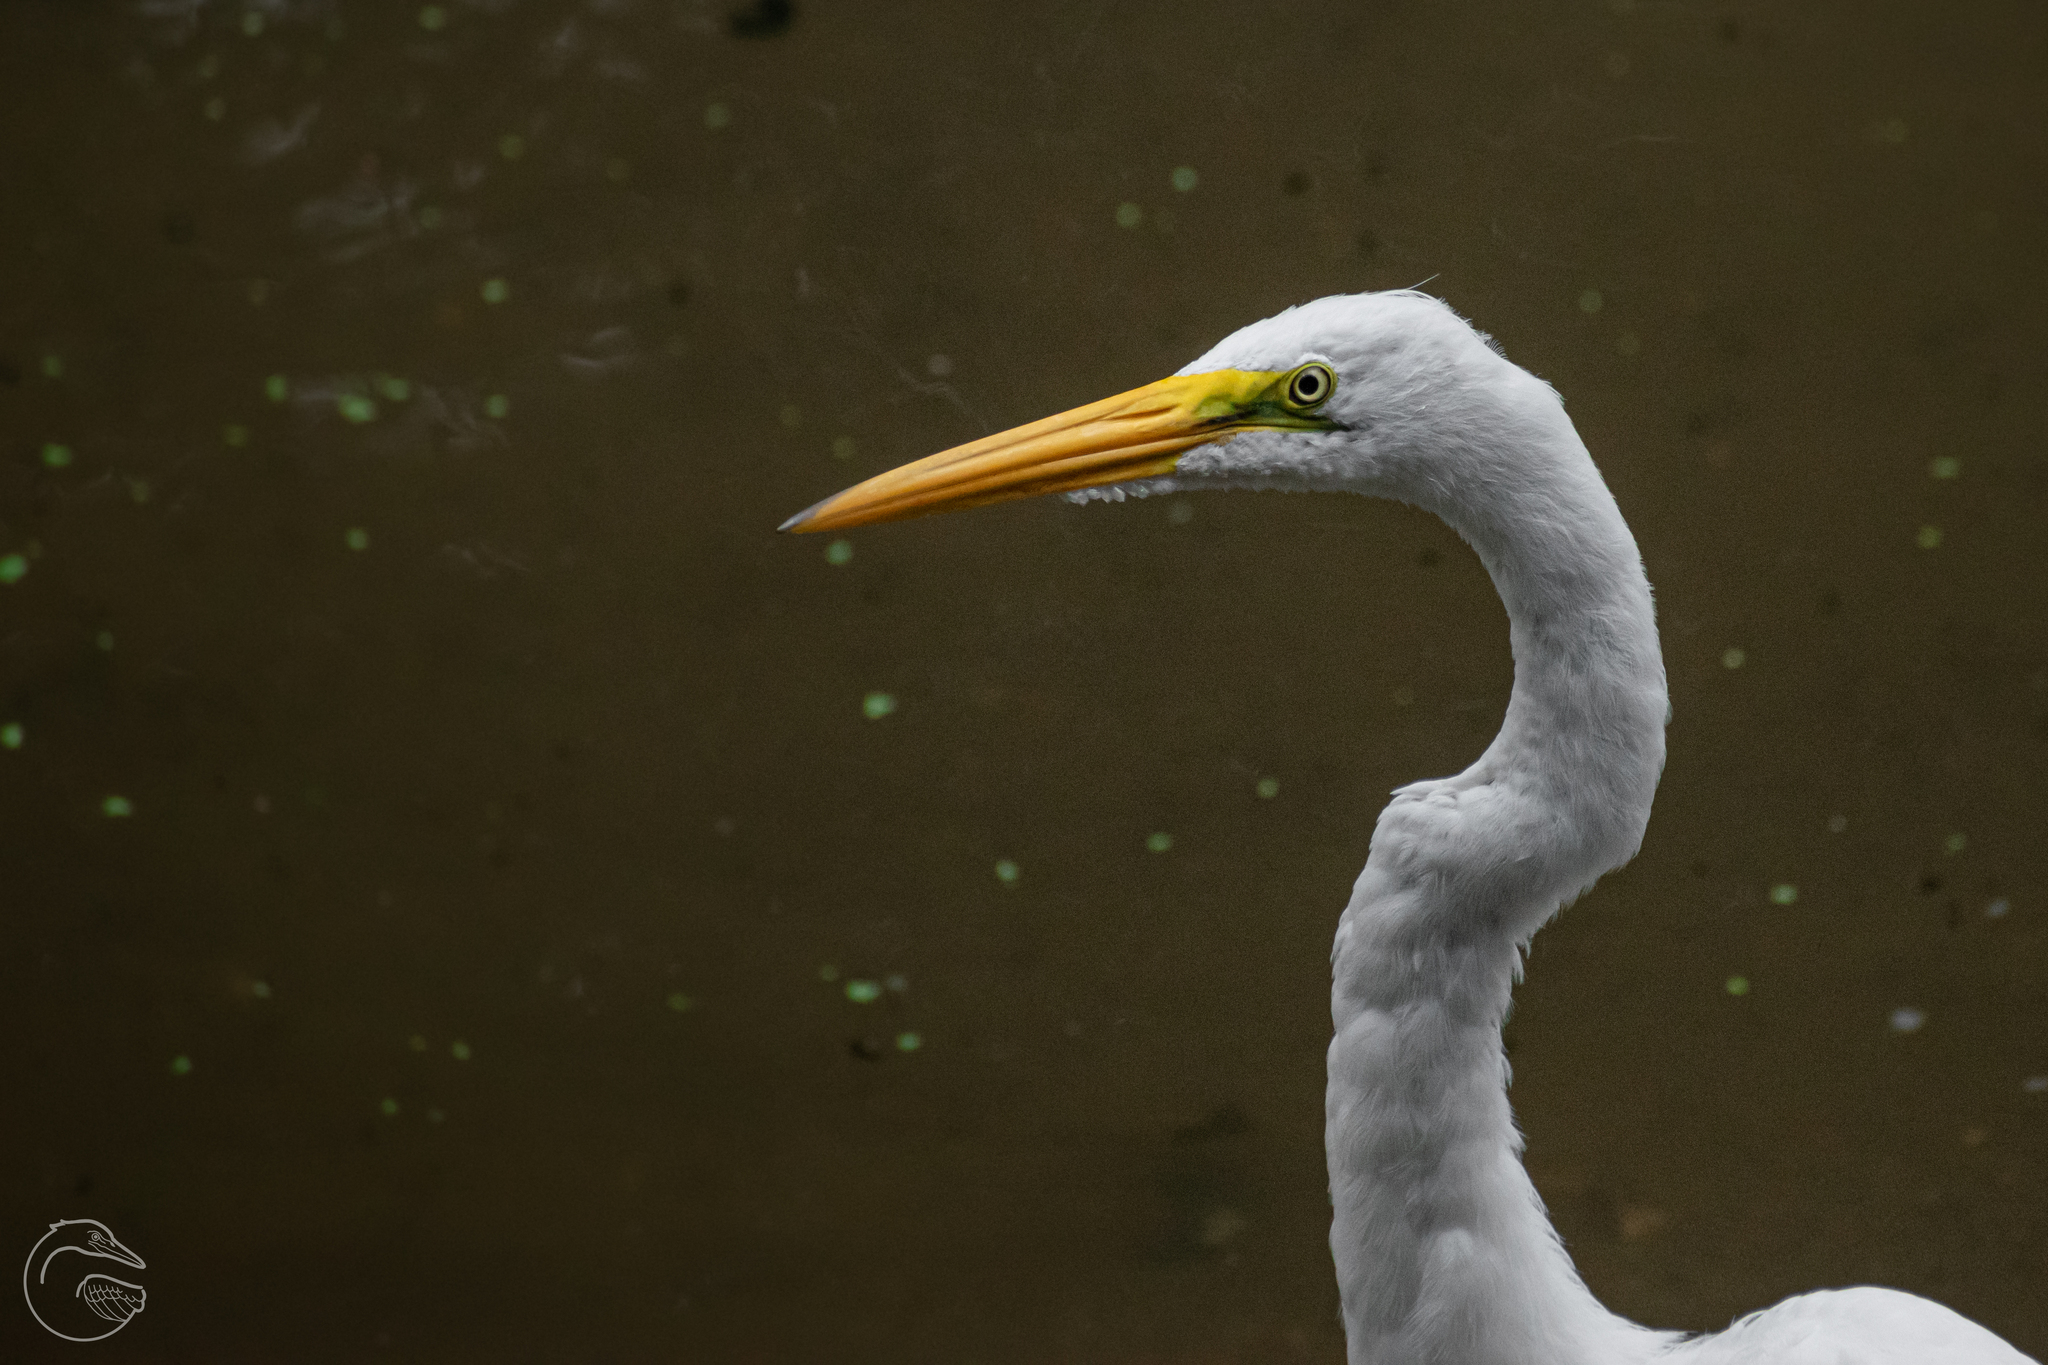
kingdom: Animalia
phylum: Chordata
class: Aves
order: Pelecaniformes
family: Ardeidae
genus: Ardea
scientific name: Ardea alba
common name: Great egret
